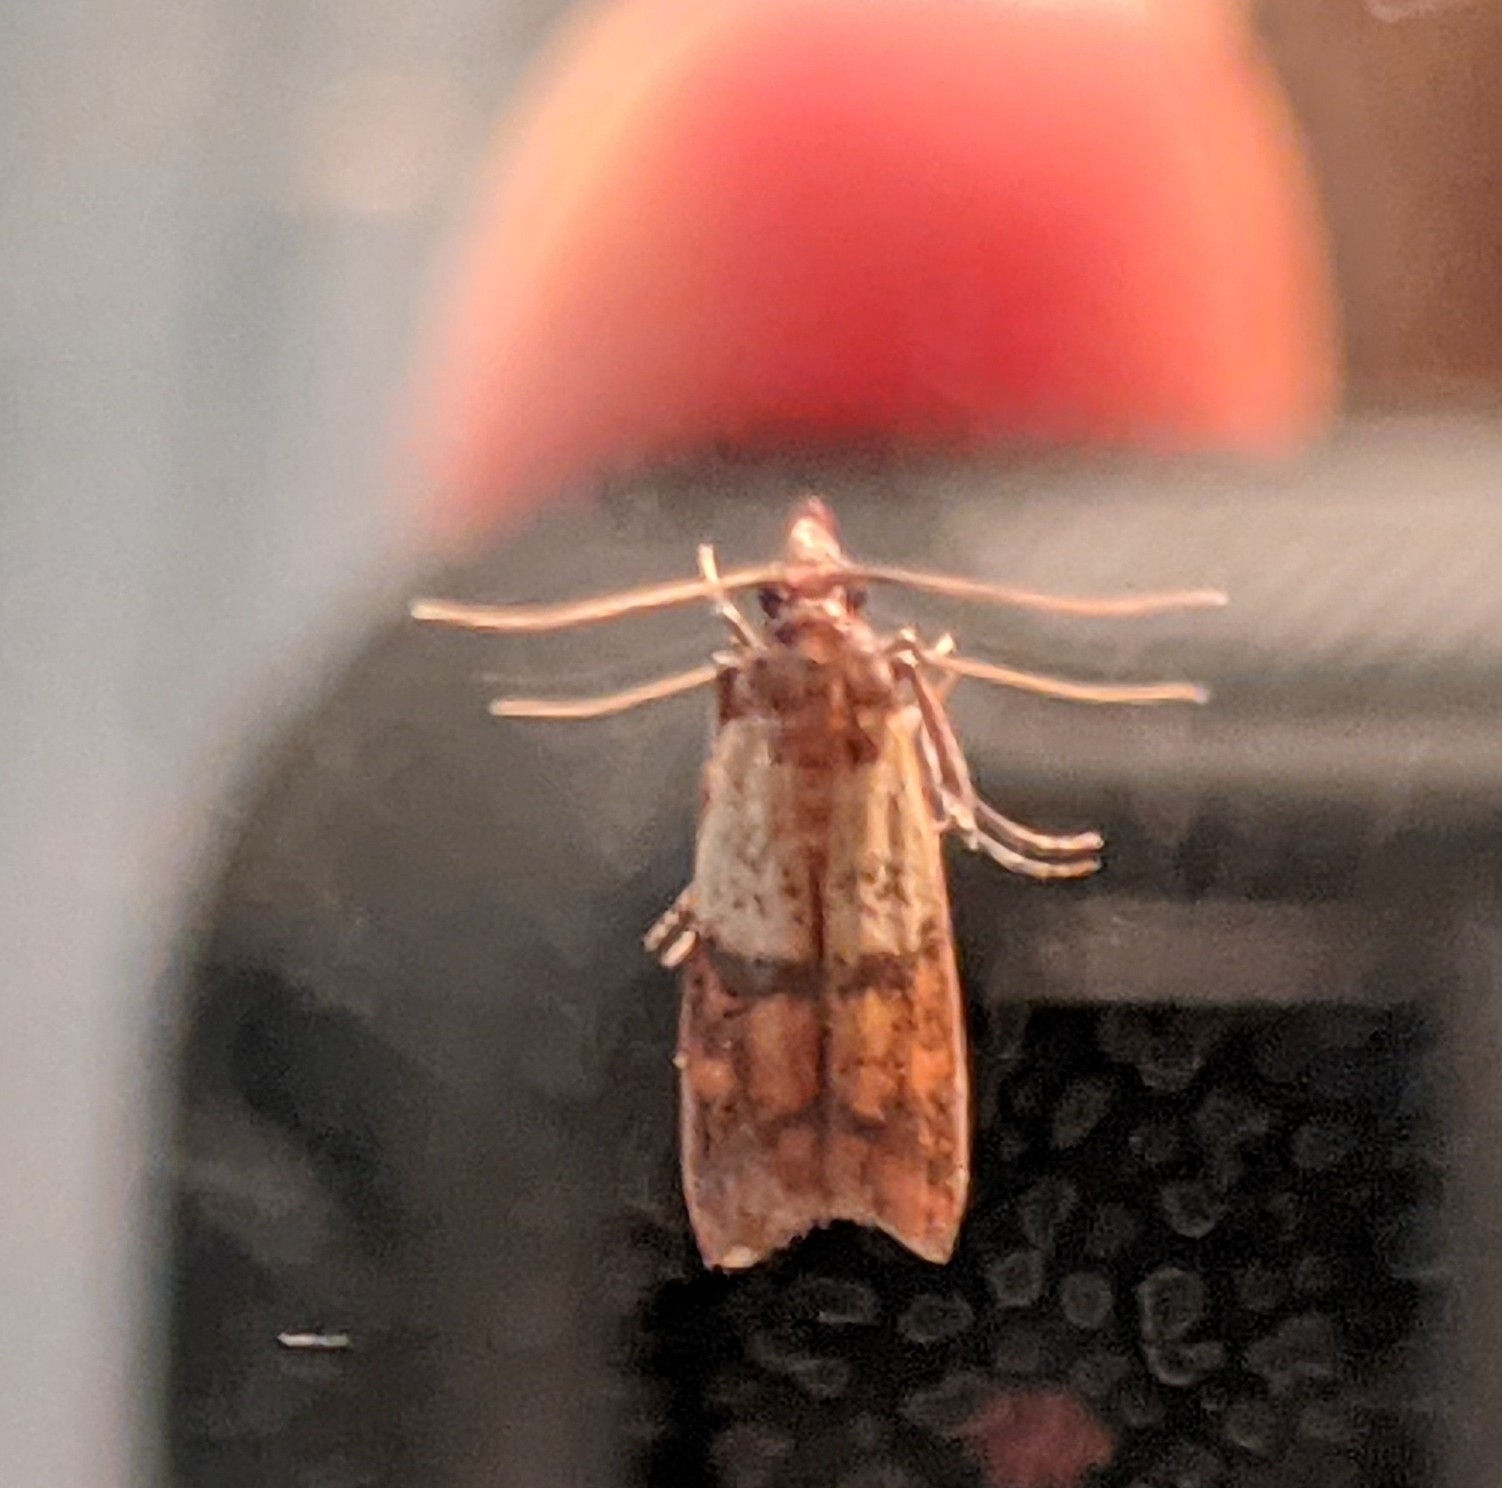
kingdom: Animalia
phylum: Arthropoda
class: Insecta
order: Lepidoptera
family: Pyralidae
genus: Plodia
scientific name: Plodia interpunctella
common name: Indian meal moth
